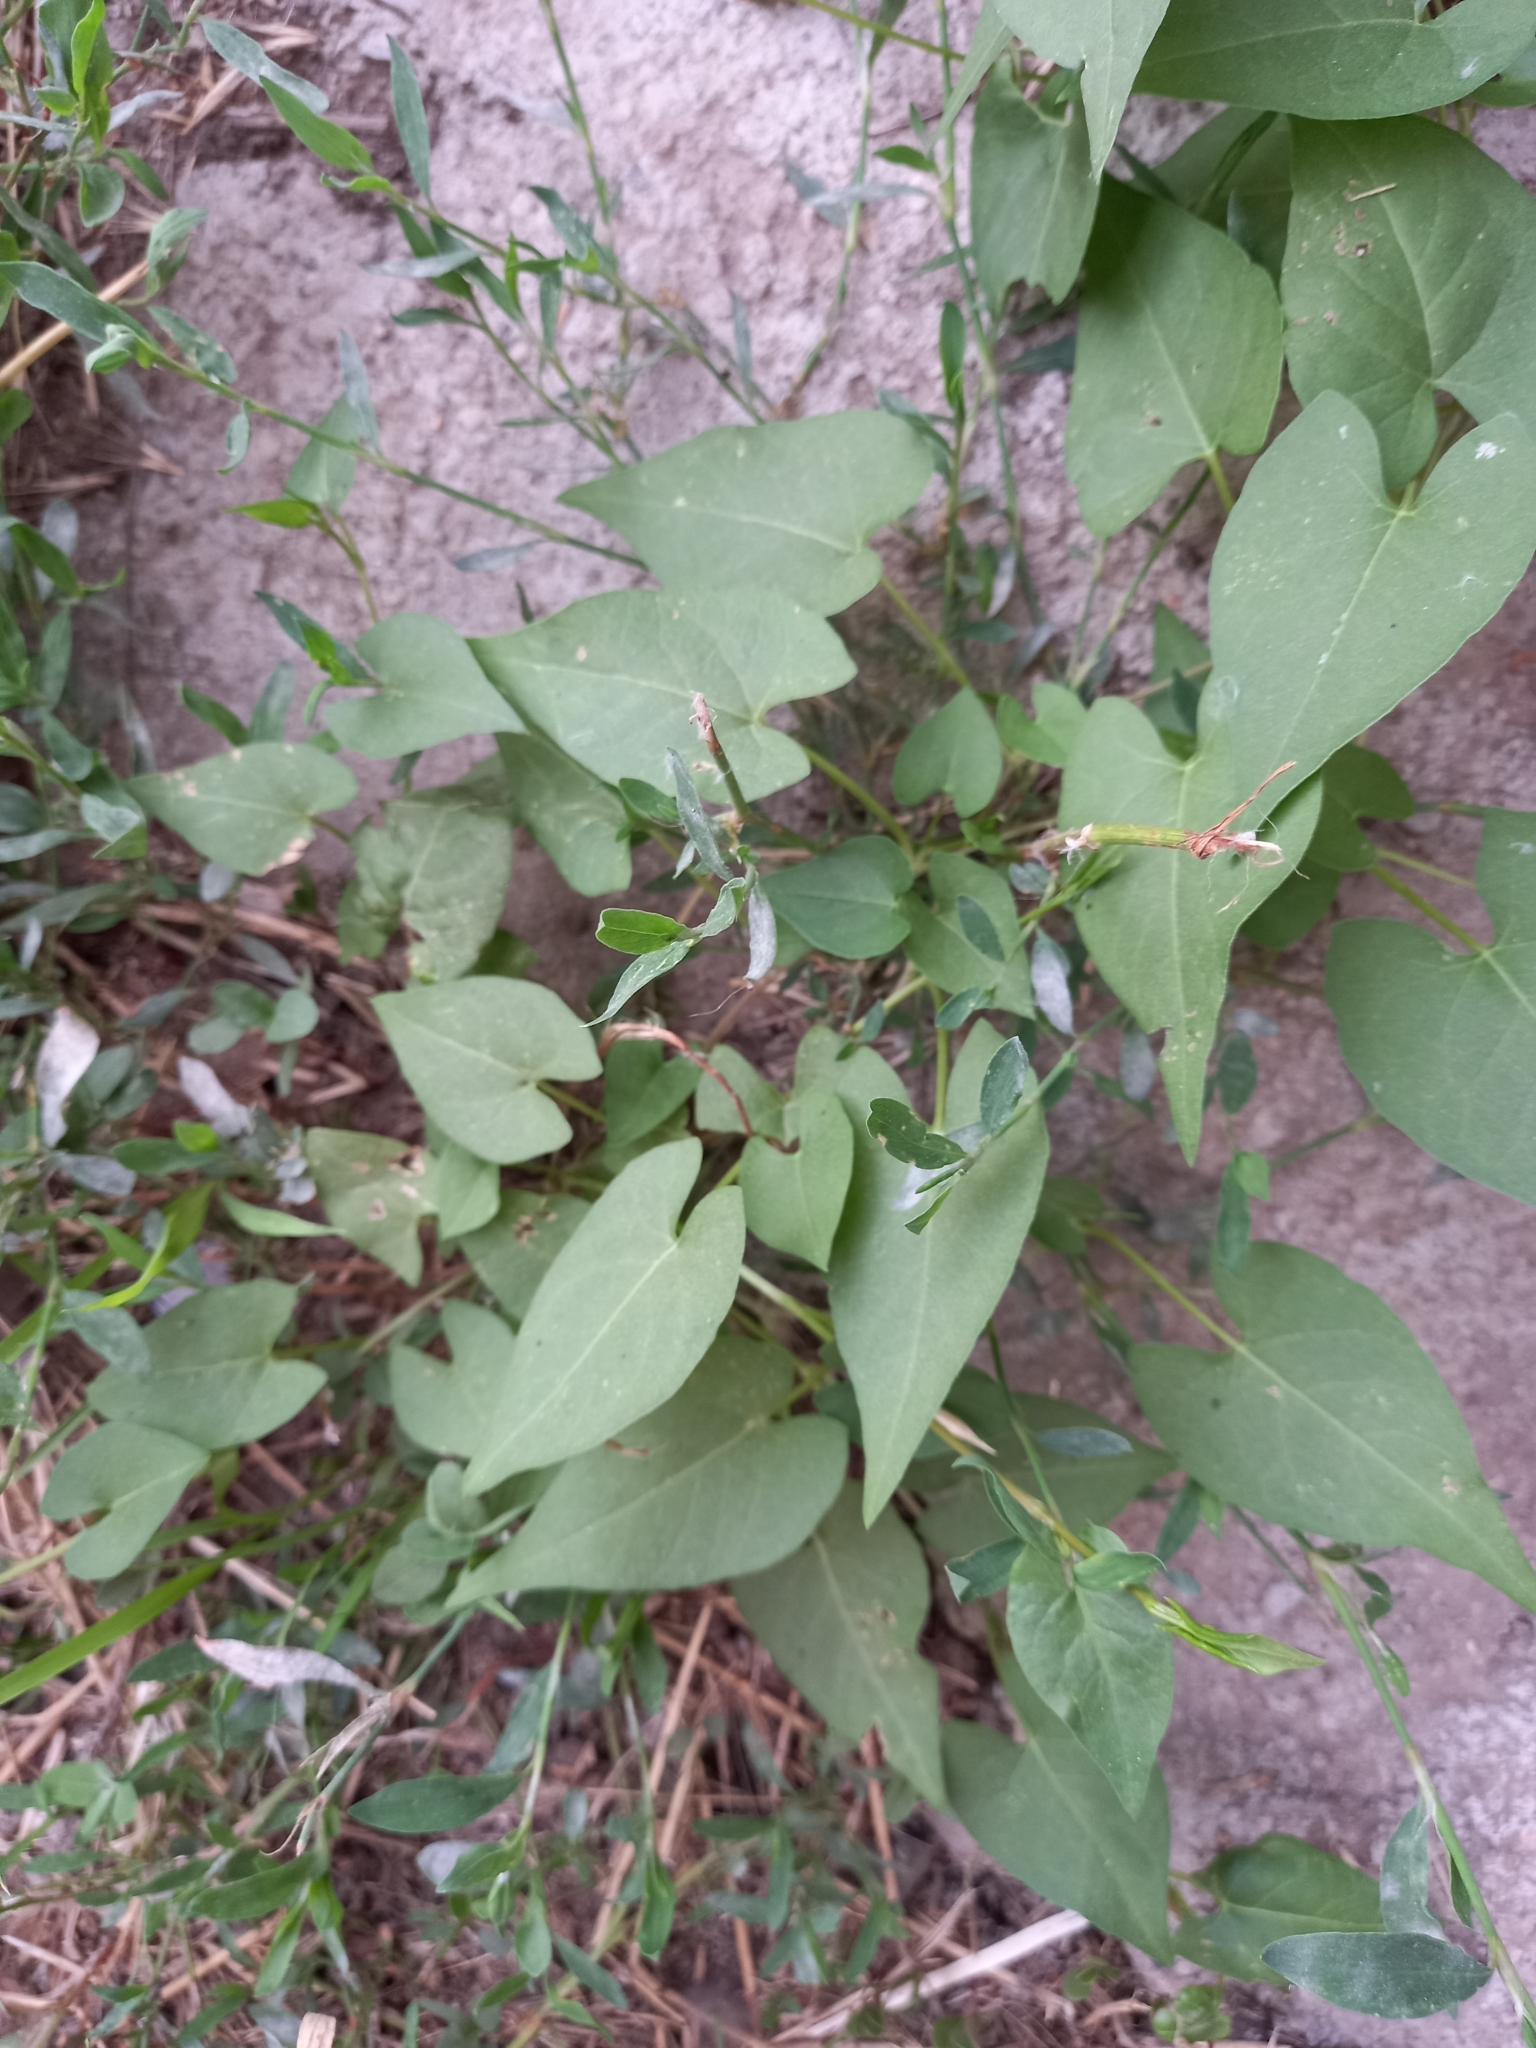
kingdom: Plantae
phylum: Tracheophyta
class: Magnoliopsida
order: Caryophyllales
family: Polygonaceae
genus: Fallopia
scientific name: Fallopia convolvulus
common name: Black bindweed
